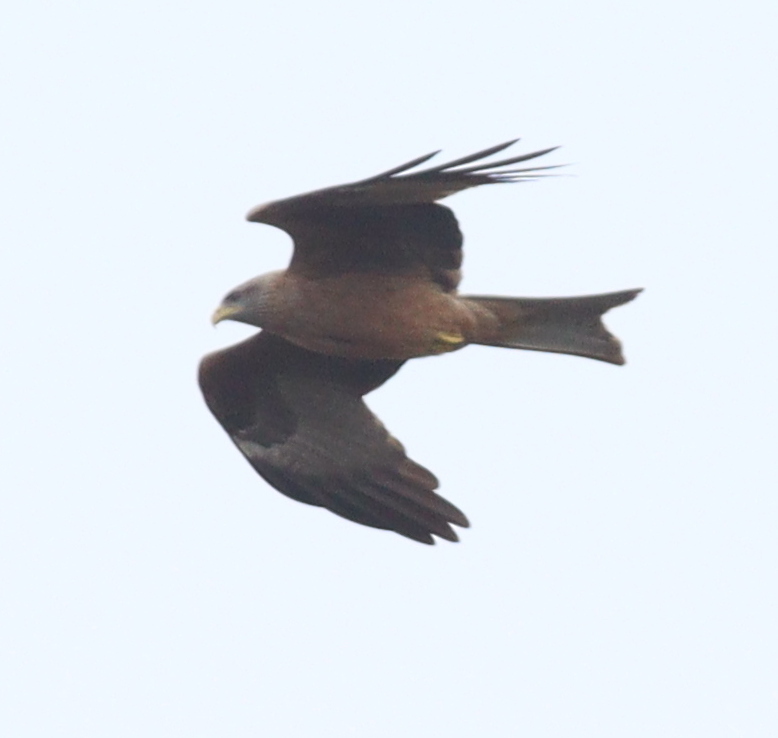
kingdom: Animalia
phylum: Chordata
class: Aves
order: Accipitriformes
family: Accipitridae
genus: Milvus
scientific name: Milvus migrans
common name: Black kite
